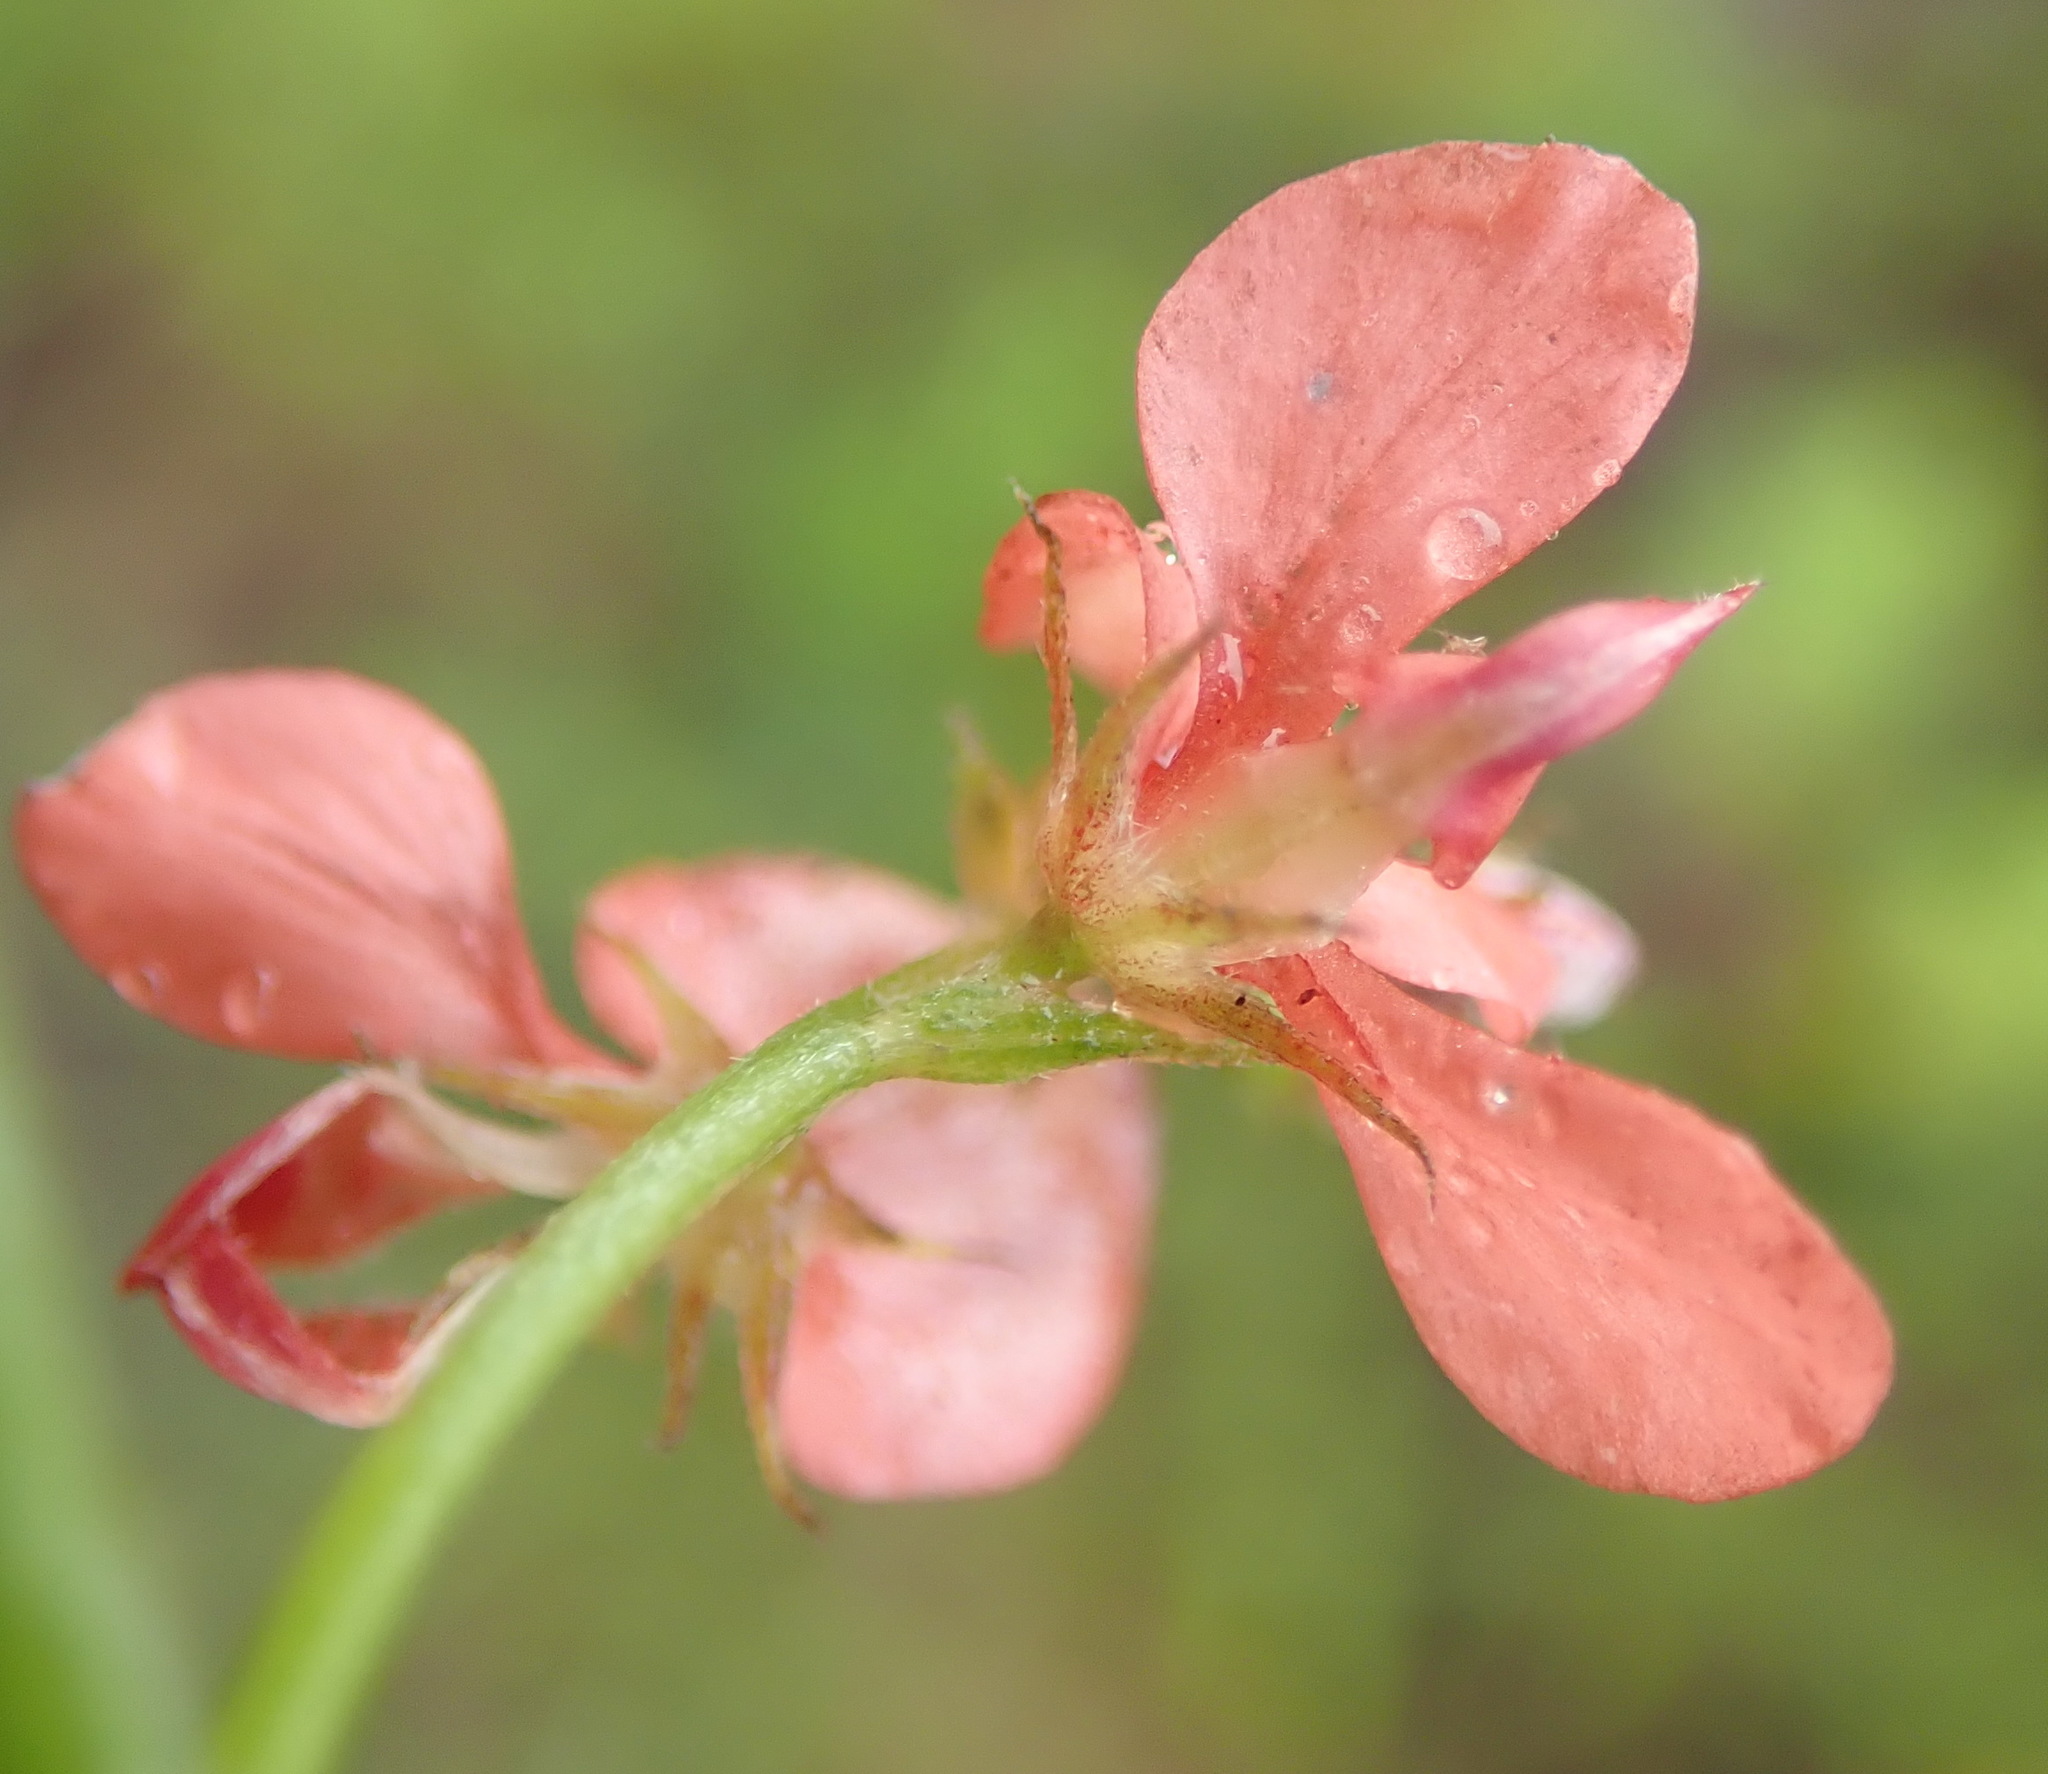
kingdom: Plantae
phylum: Tracheophyta
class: Magnoliopsida
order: Fabales
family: Fabaceae
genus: Indigofera
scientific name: Indigofera priorii
